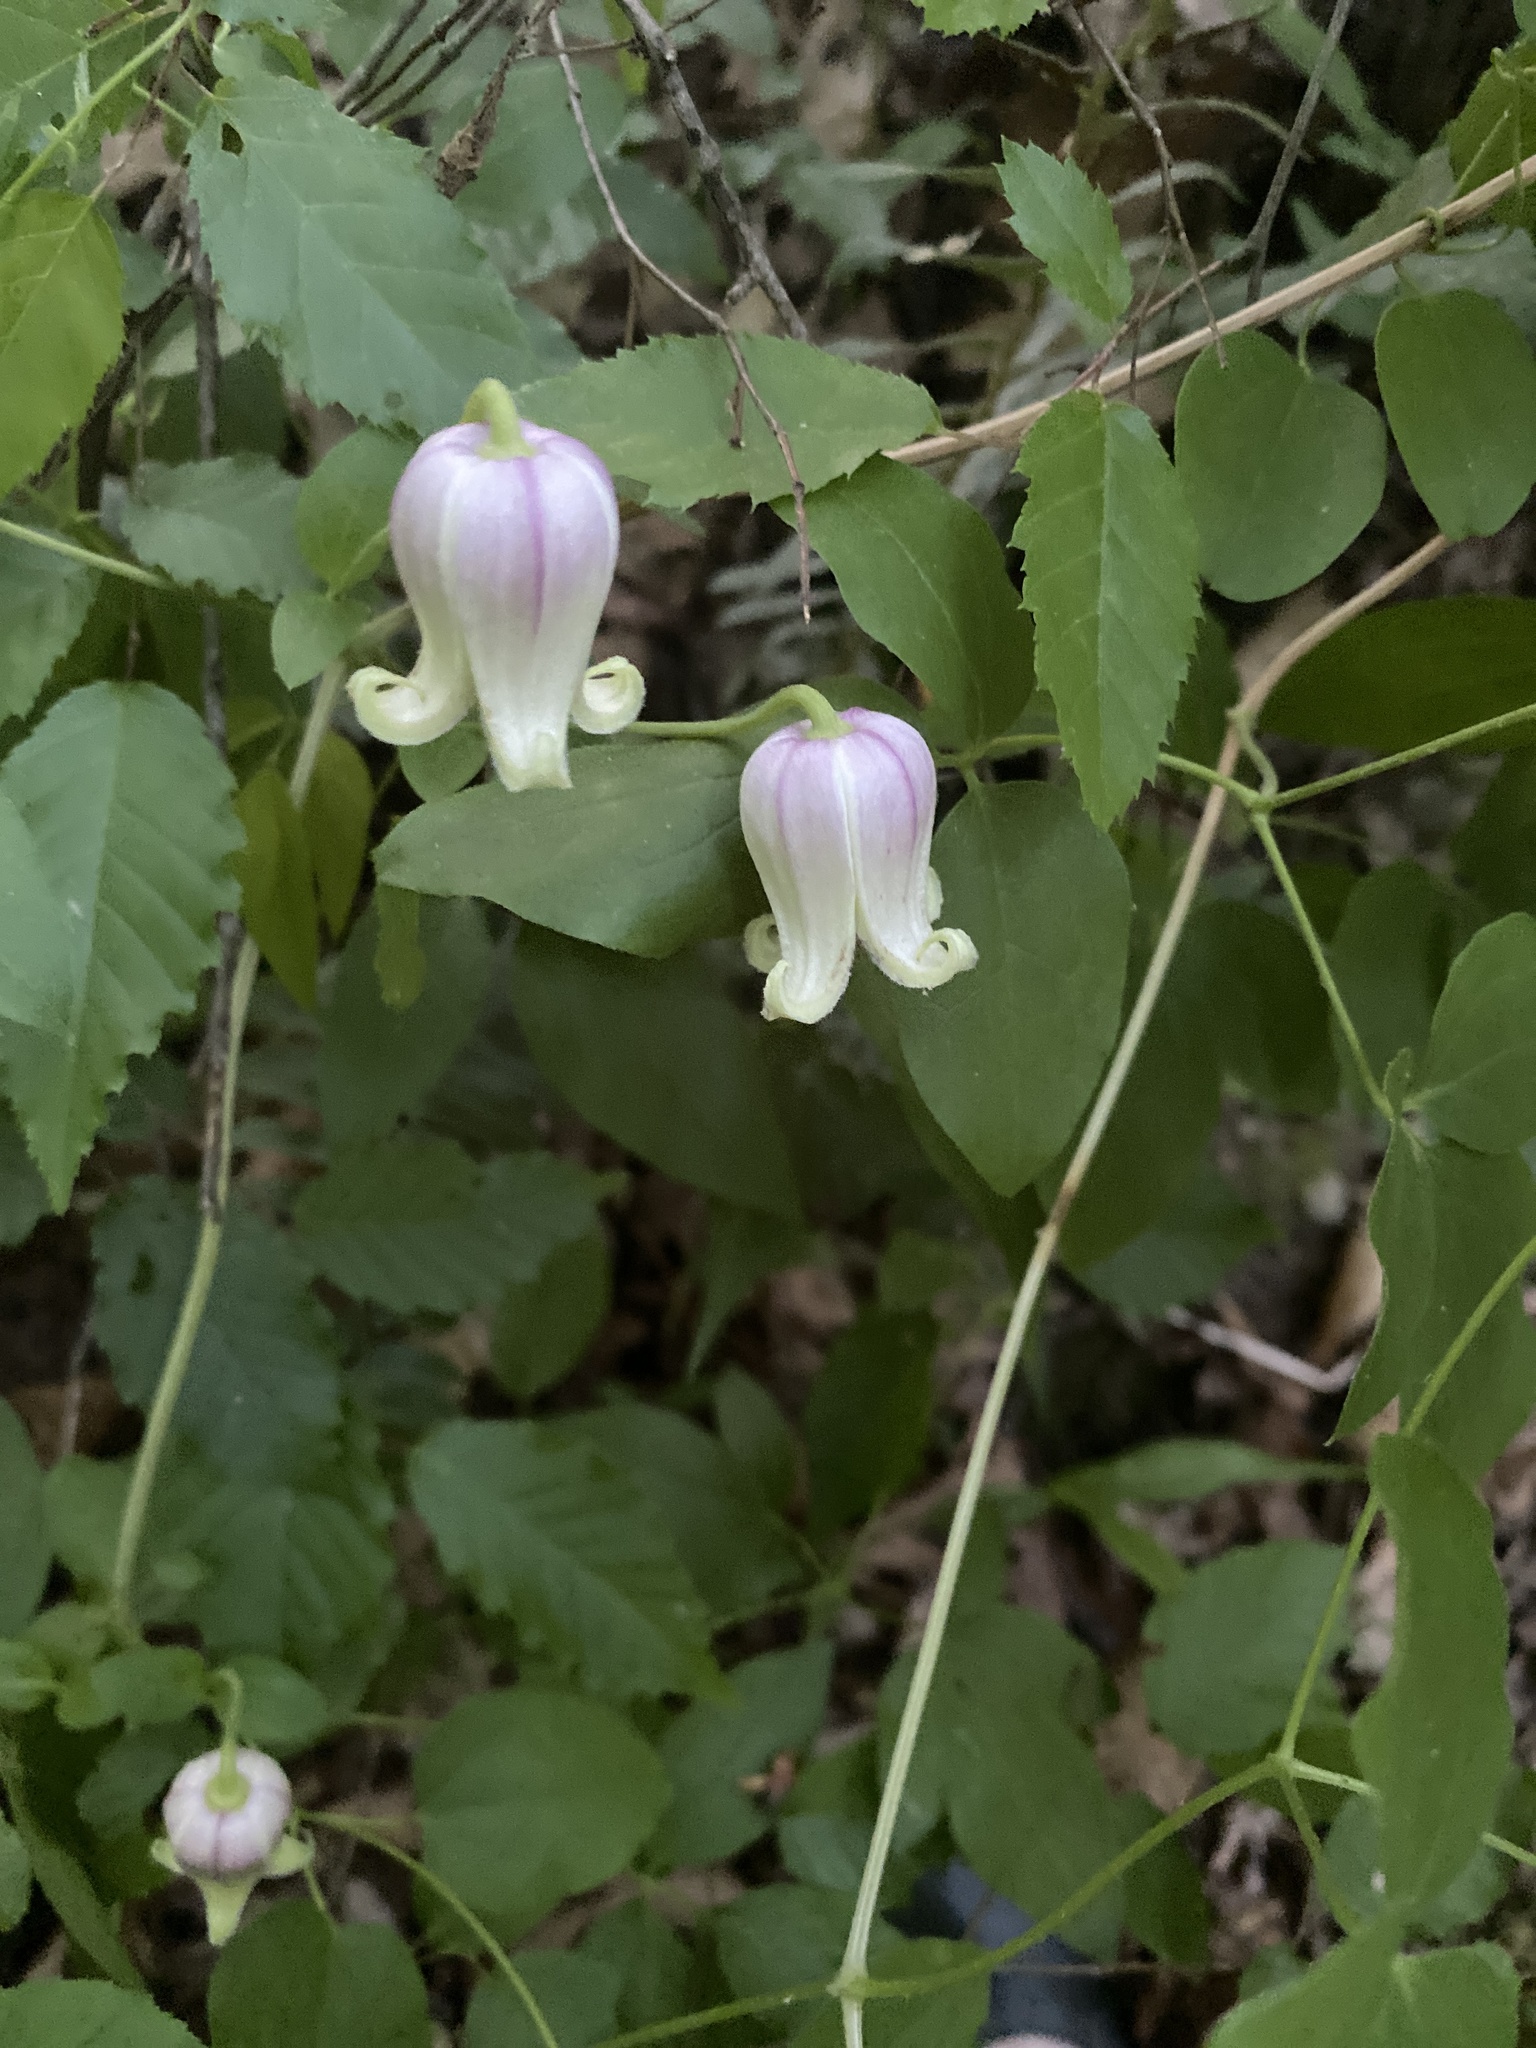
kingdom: Plantae
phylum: Tracheophyta
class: Magnoliopsida
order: Ranunculales
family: Ranunculaceae
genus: Clematis
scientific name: Clematis viorna
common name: Leather-flower
